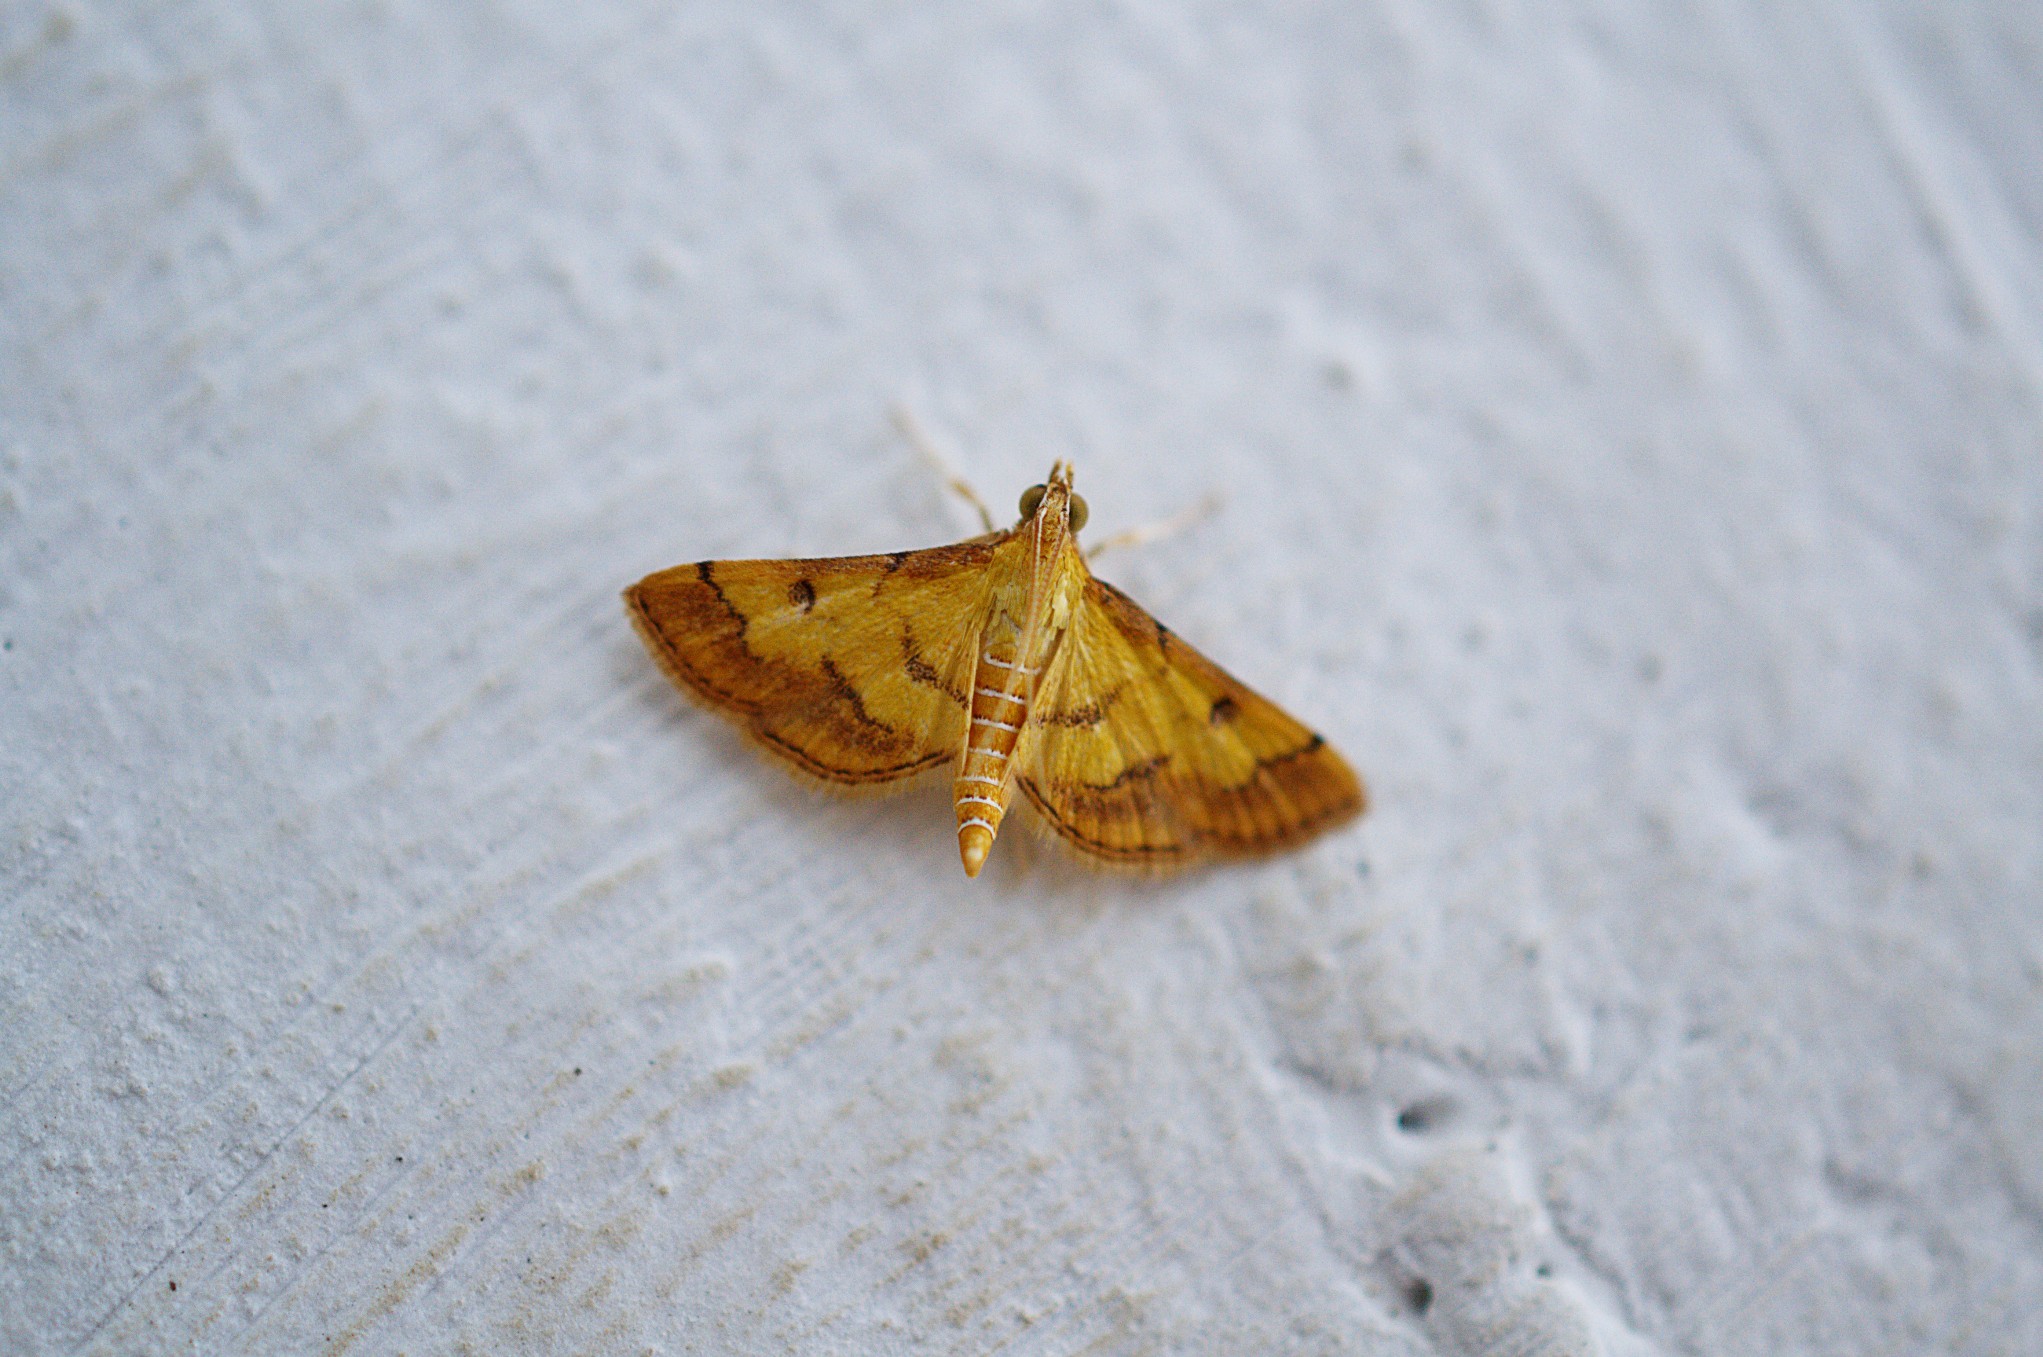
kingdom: Animalia
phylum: Arthropoda
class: Insecta
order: Lepidoptera
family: Crambidae
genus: Ischnurges
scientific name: Ischnurges luteomarginalis
